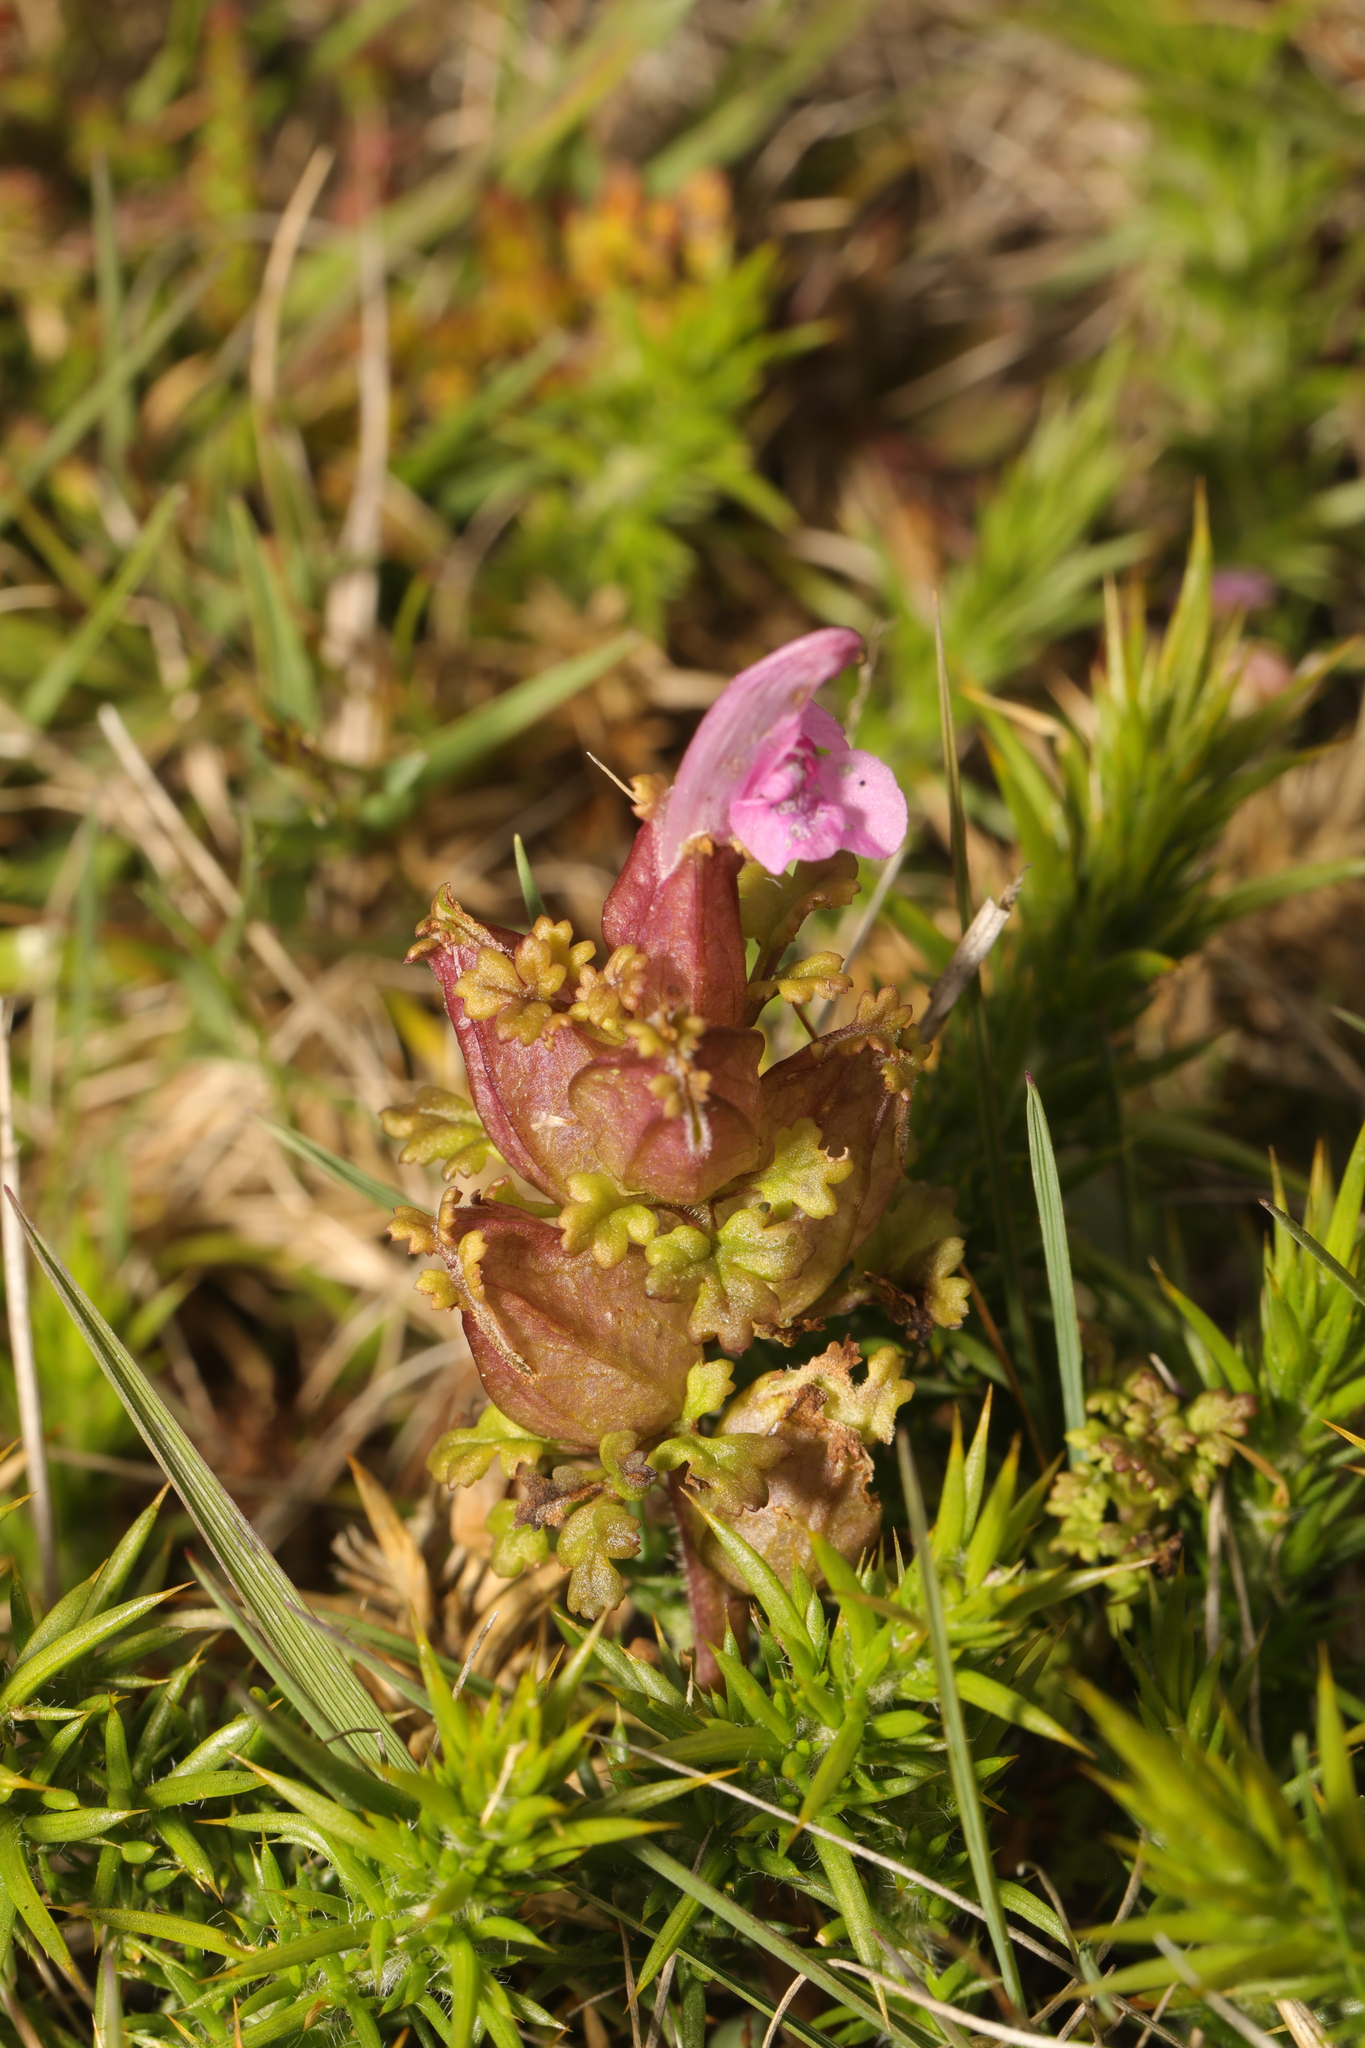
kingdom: Plantae
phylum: Tracheophyta
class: Magnoliopsida
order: Lamiales
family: Orobanchaceae
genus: Pedicularis
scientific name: Pedicularis sylvatica
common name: Lousewort
